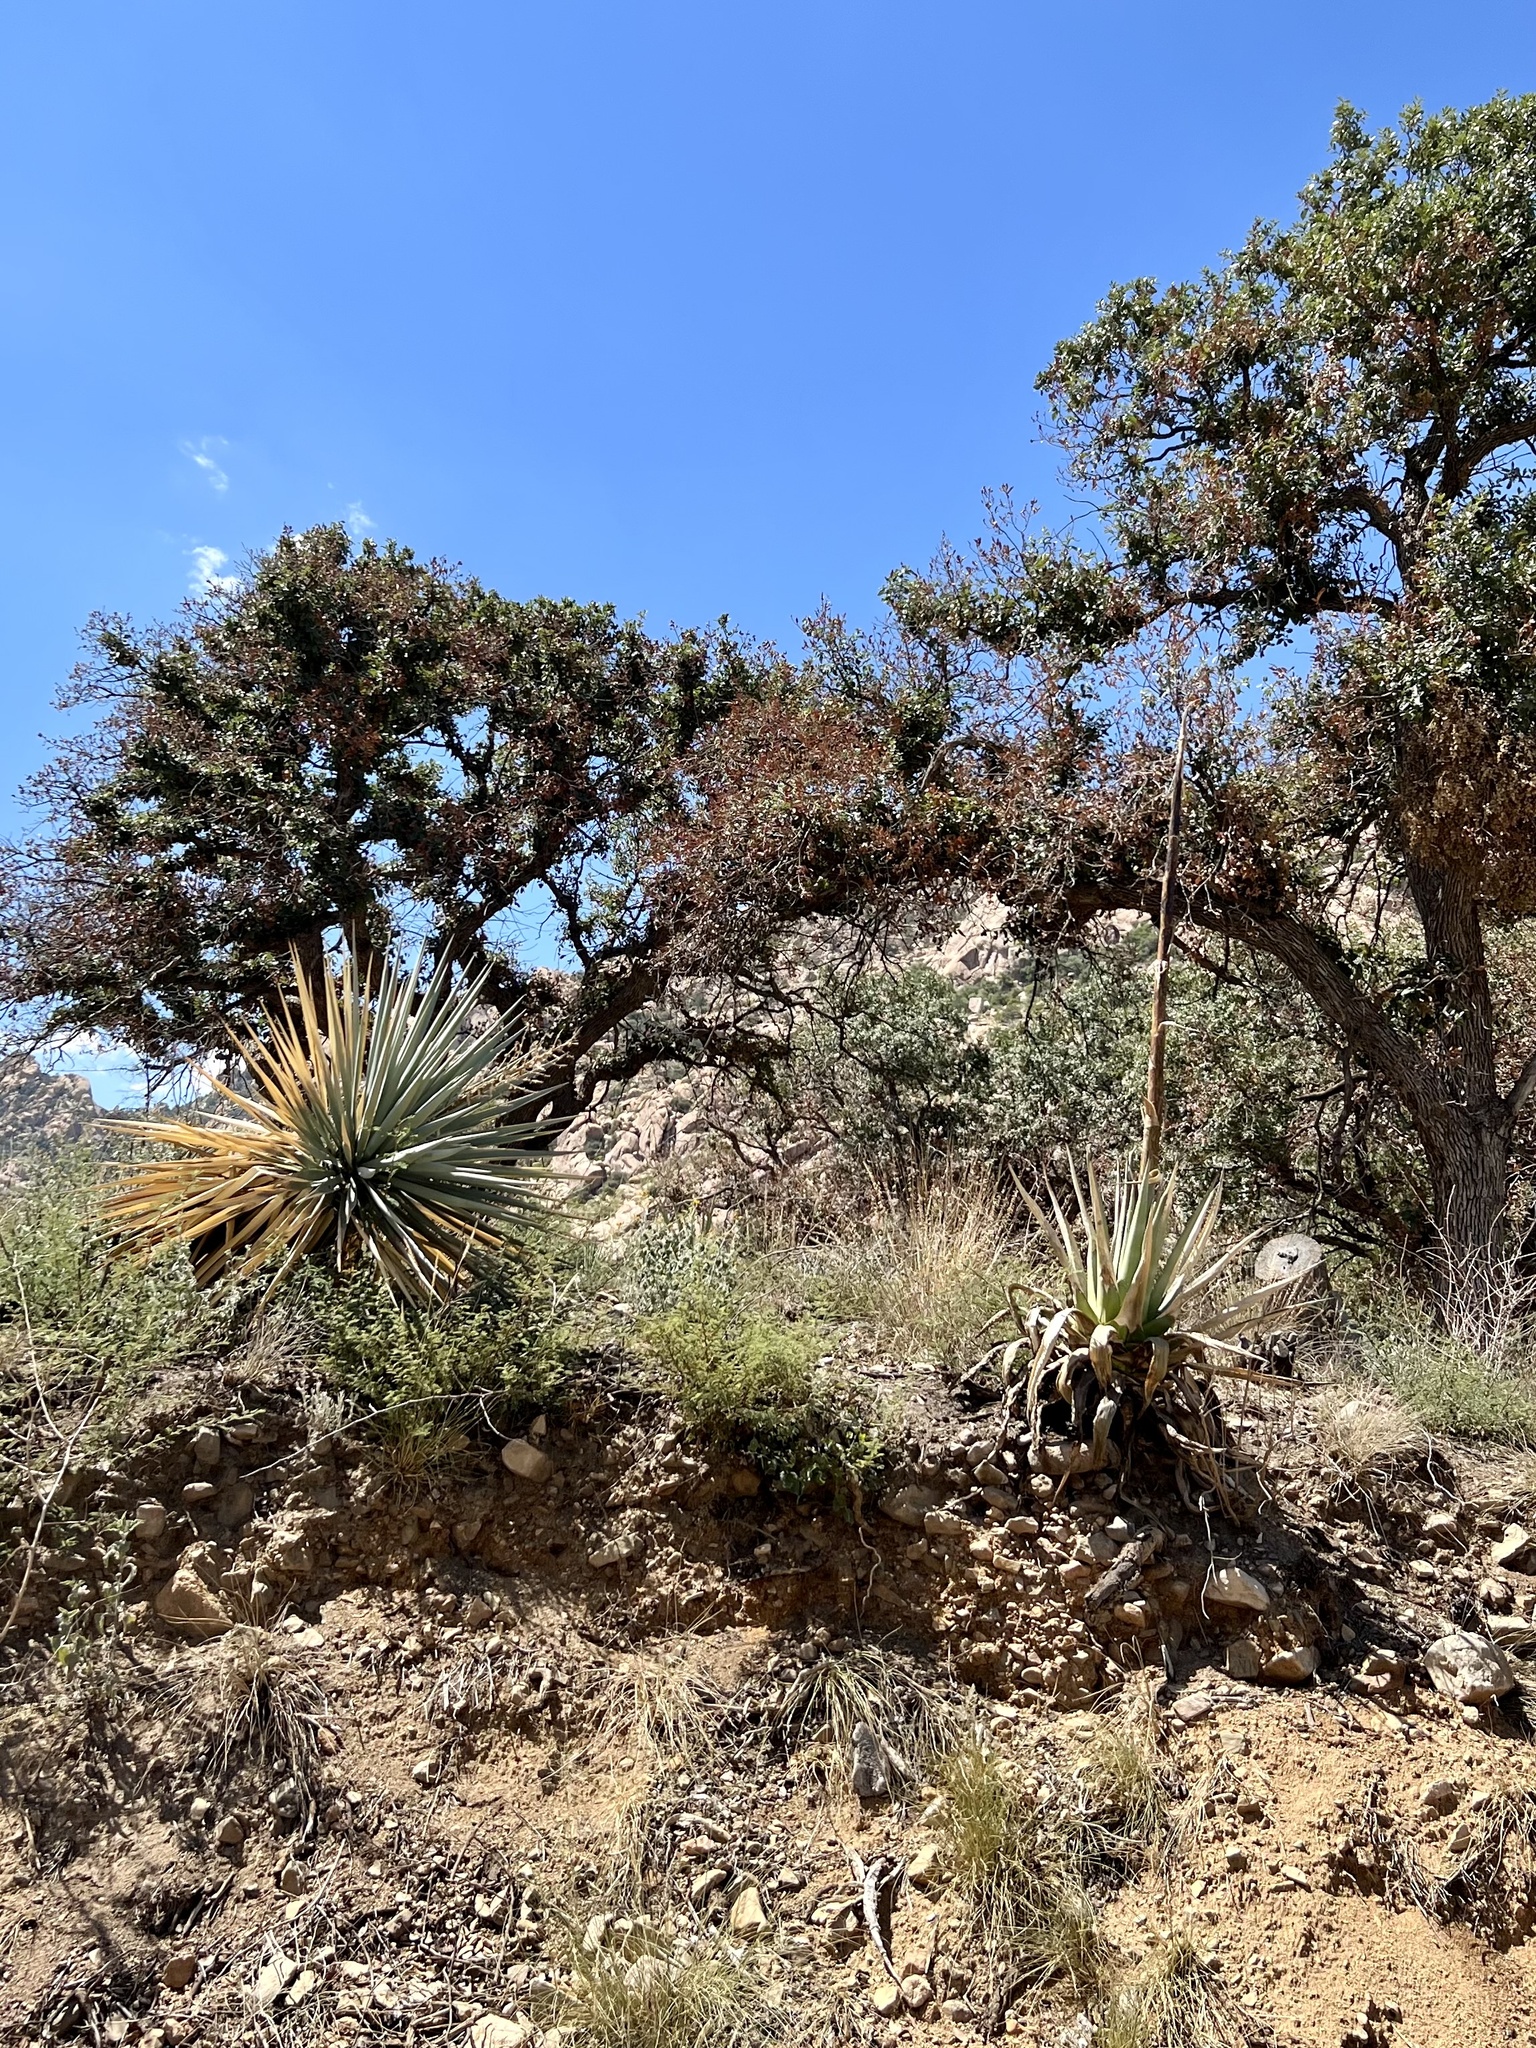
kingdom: Plantae
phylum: Tracheophyta
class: Liliopsida
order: Asparagales
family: Asparagaceae
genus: Agave
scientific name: Agave palmeri
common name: Palmer agave
